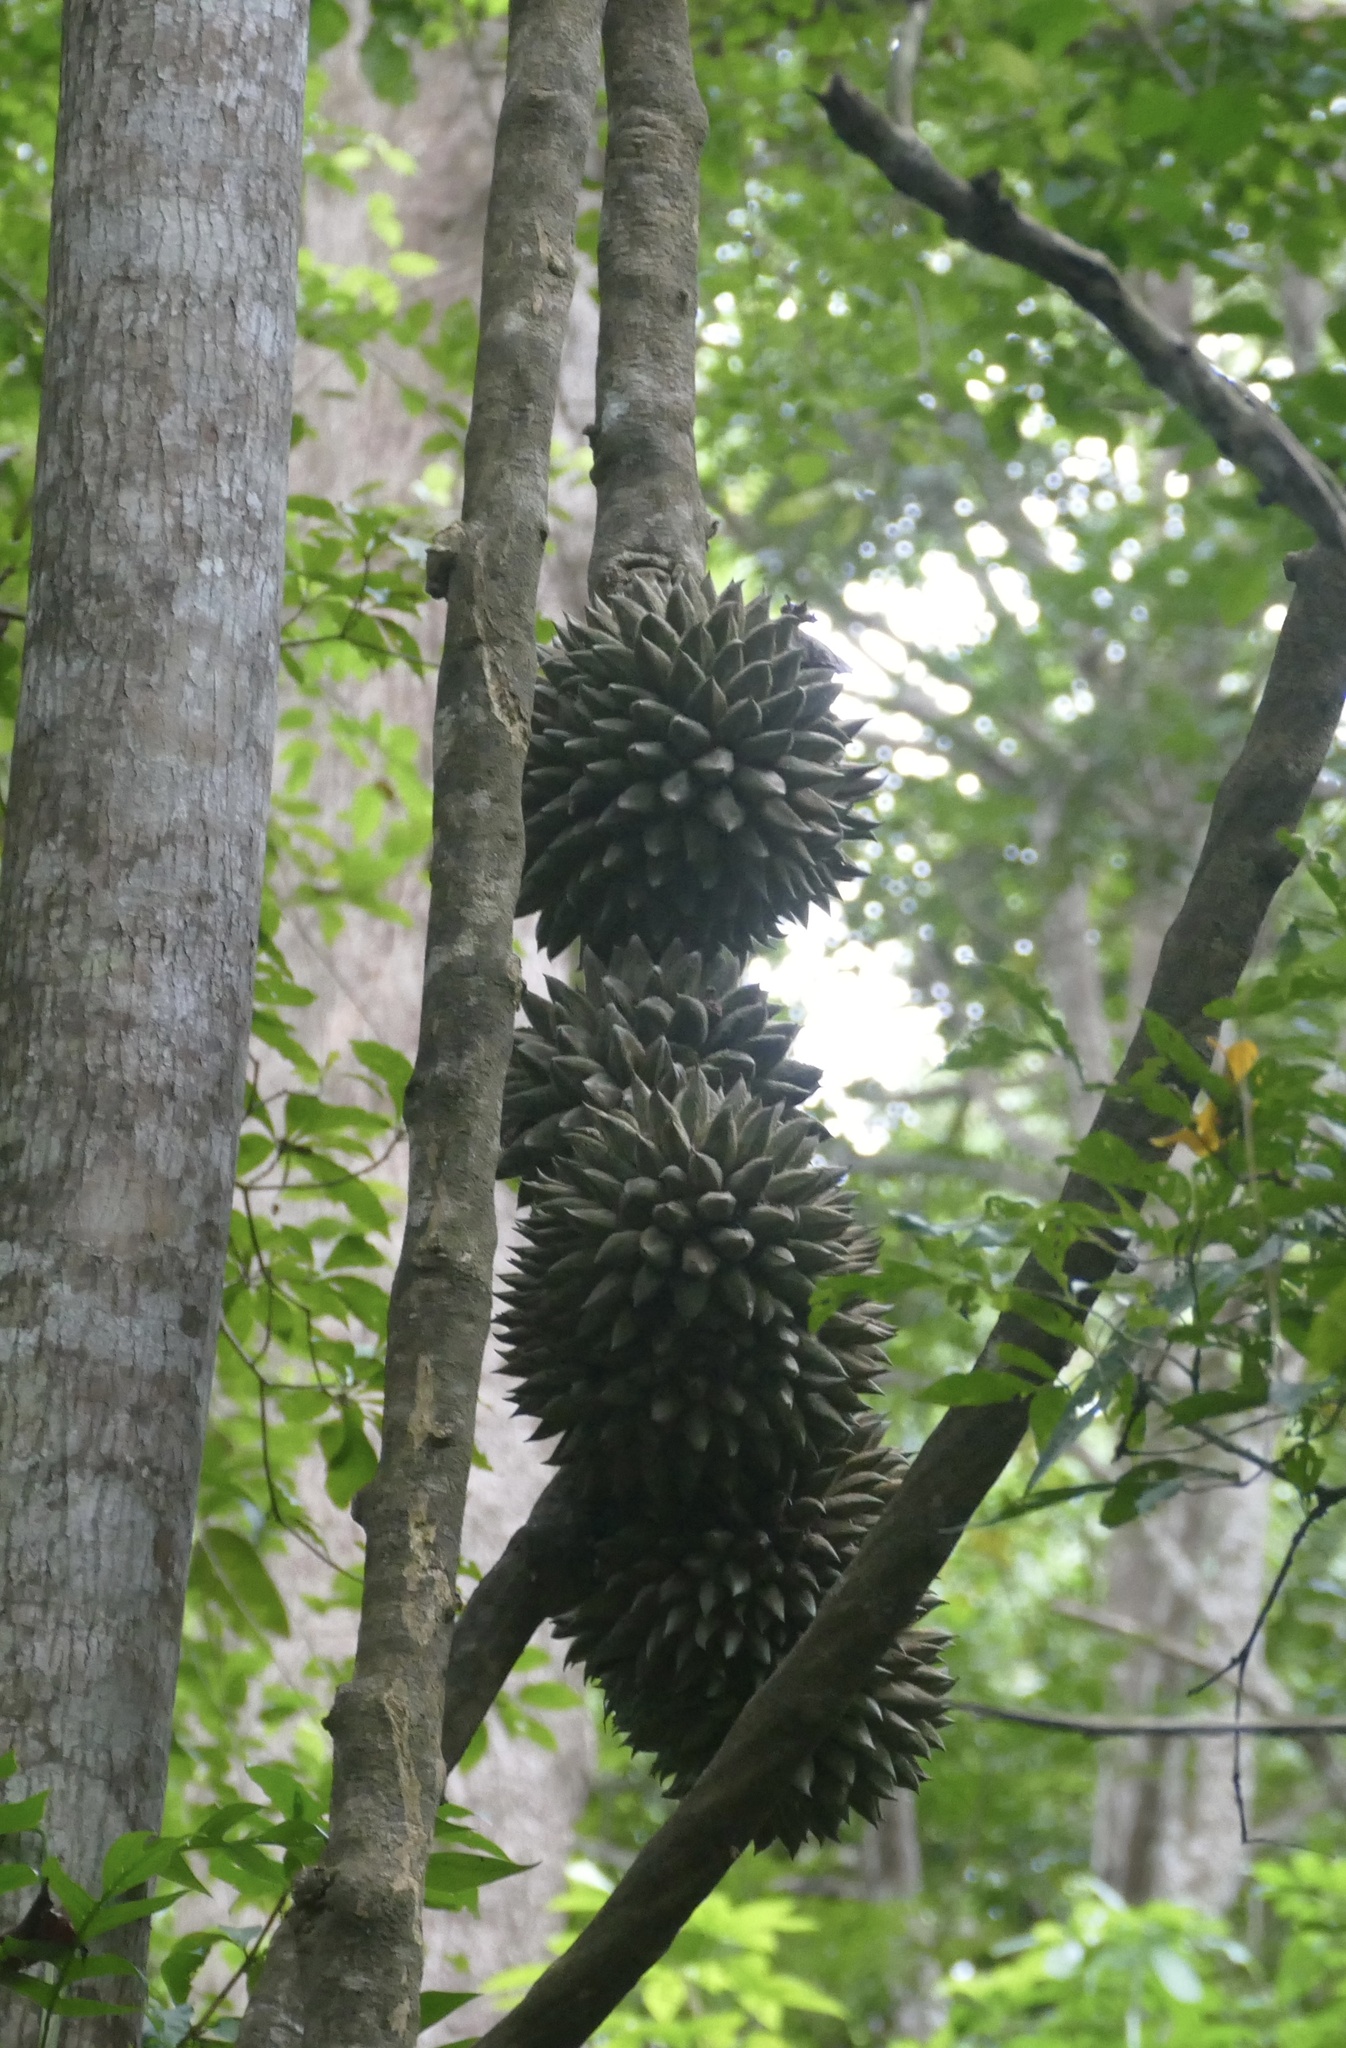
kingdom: Plantae
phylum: Tracheophyta
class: Magnoliopsida
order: Icacinales
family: Icacinaceae
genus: Phytocrene
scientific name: Phytocrene macrophylla
